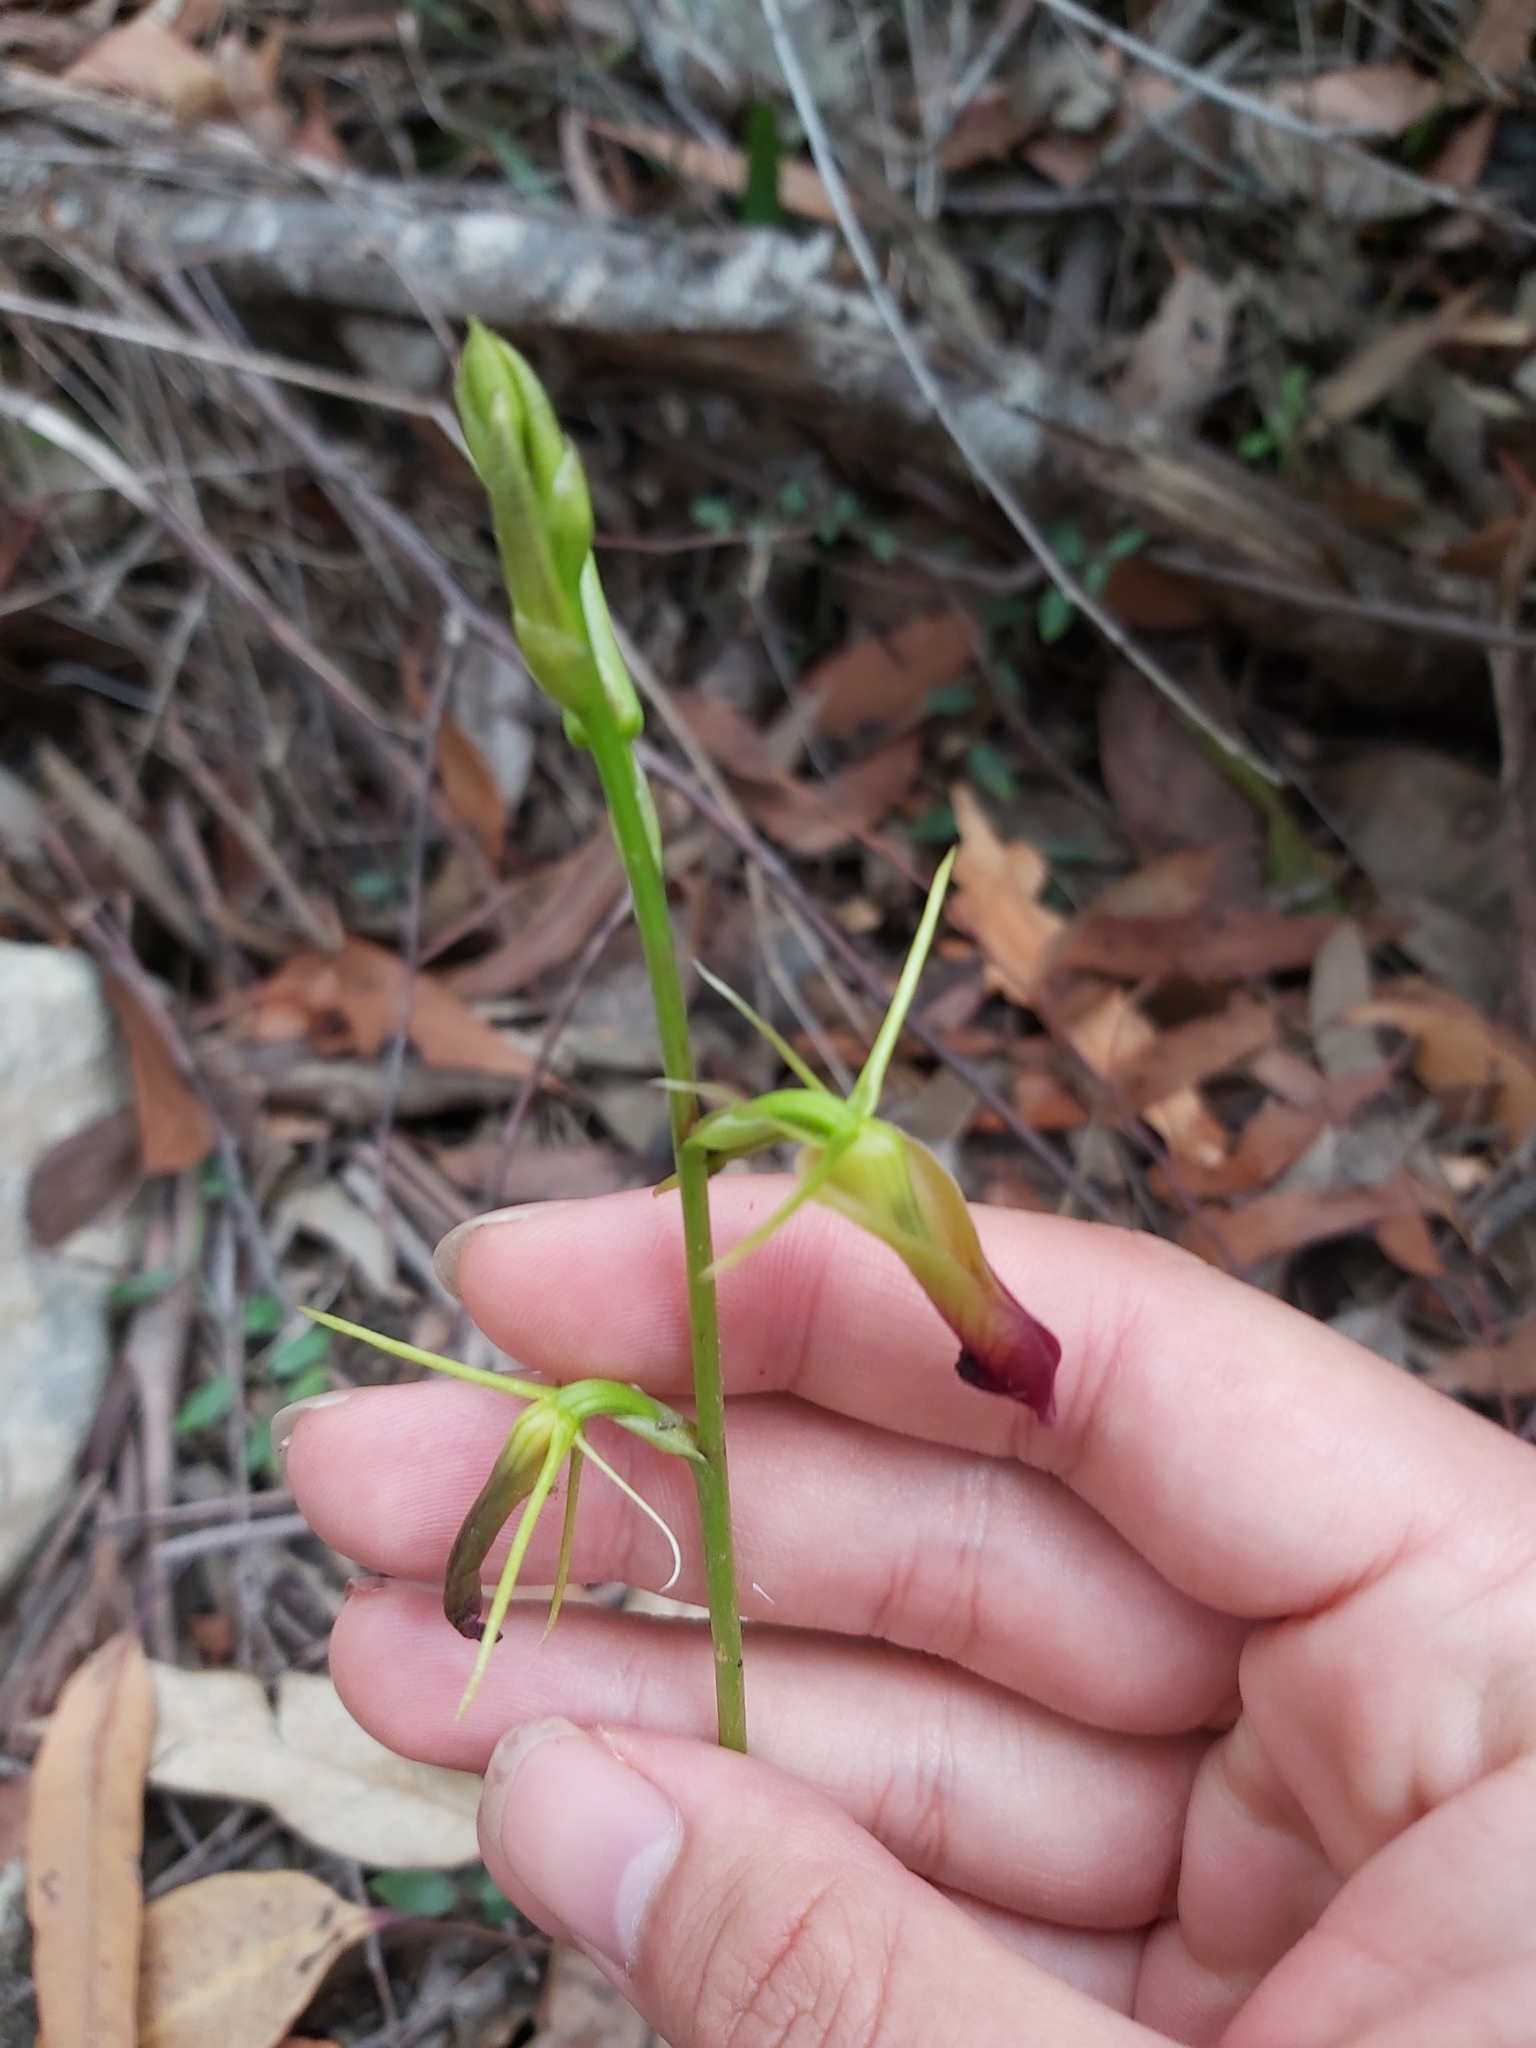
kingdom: Plantae
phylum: Tracheophyta
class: Liliopsida
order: Asparagales
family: Orchidaceae
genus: Cryptostylis
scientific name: Cryptostylis subulata
